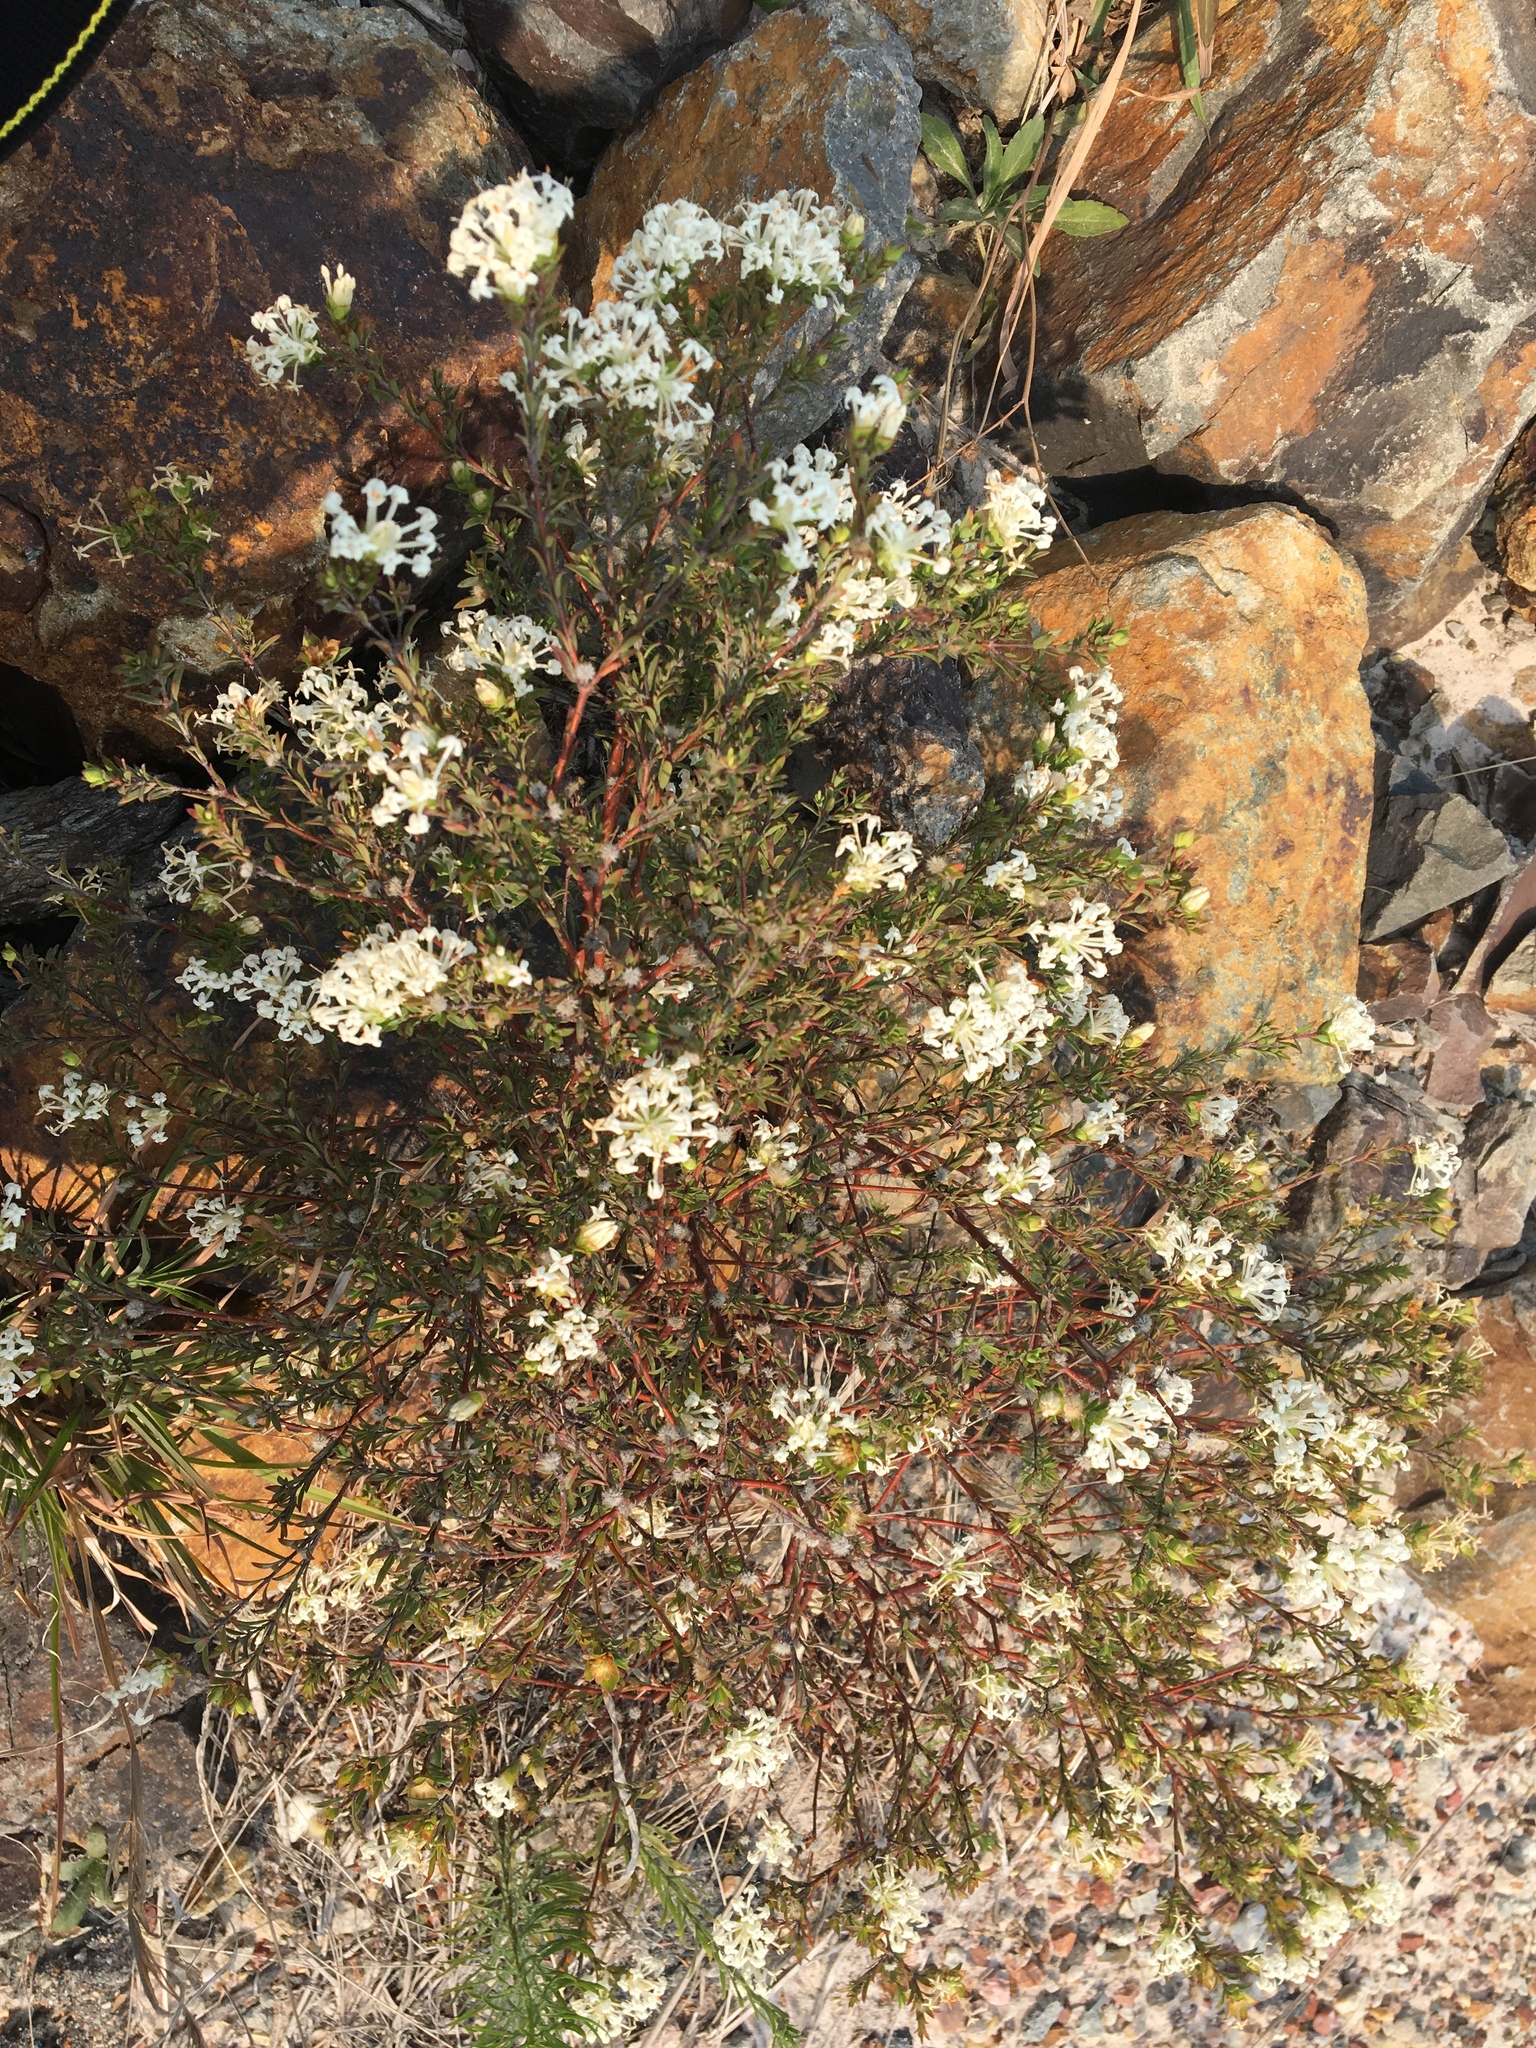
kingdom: Plantae
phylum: Tracheophyta
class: Magnoliopsida
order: Malvales
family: Thymelaeaceae
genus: Pimelea
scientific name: Pimelea linifolia
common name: Queen-of-the-bush
